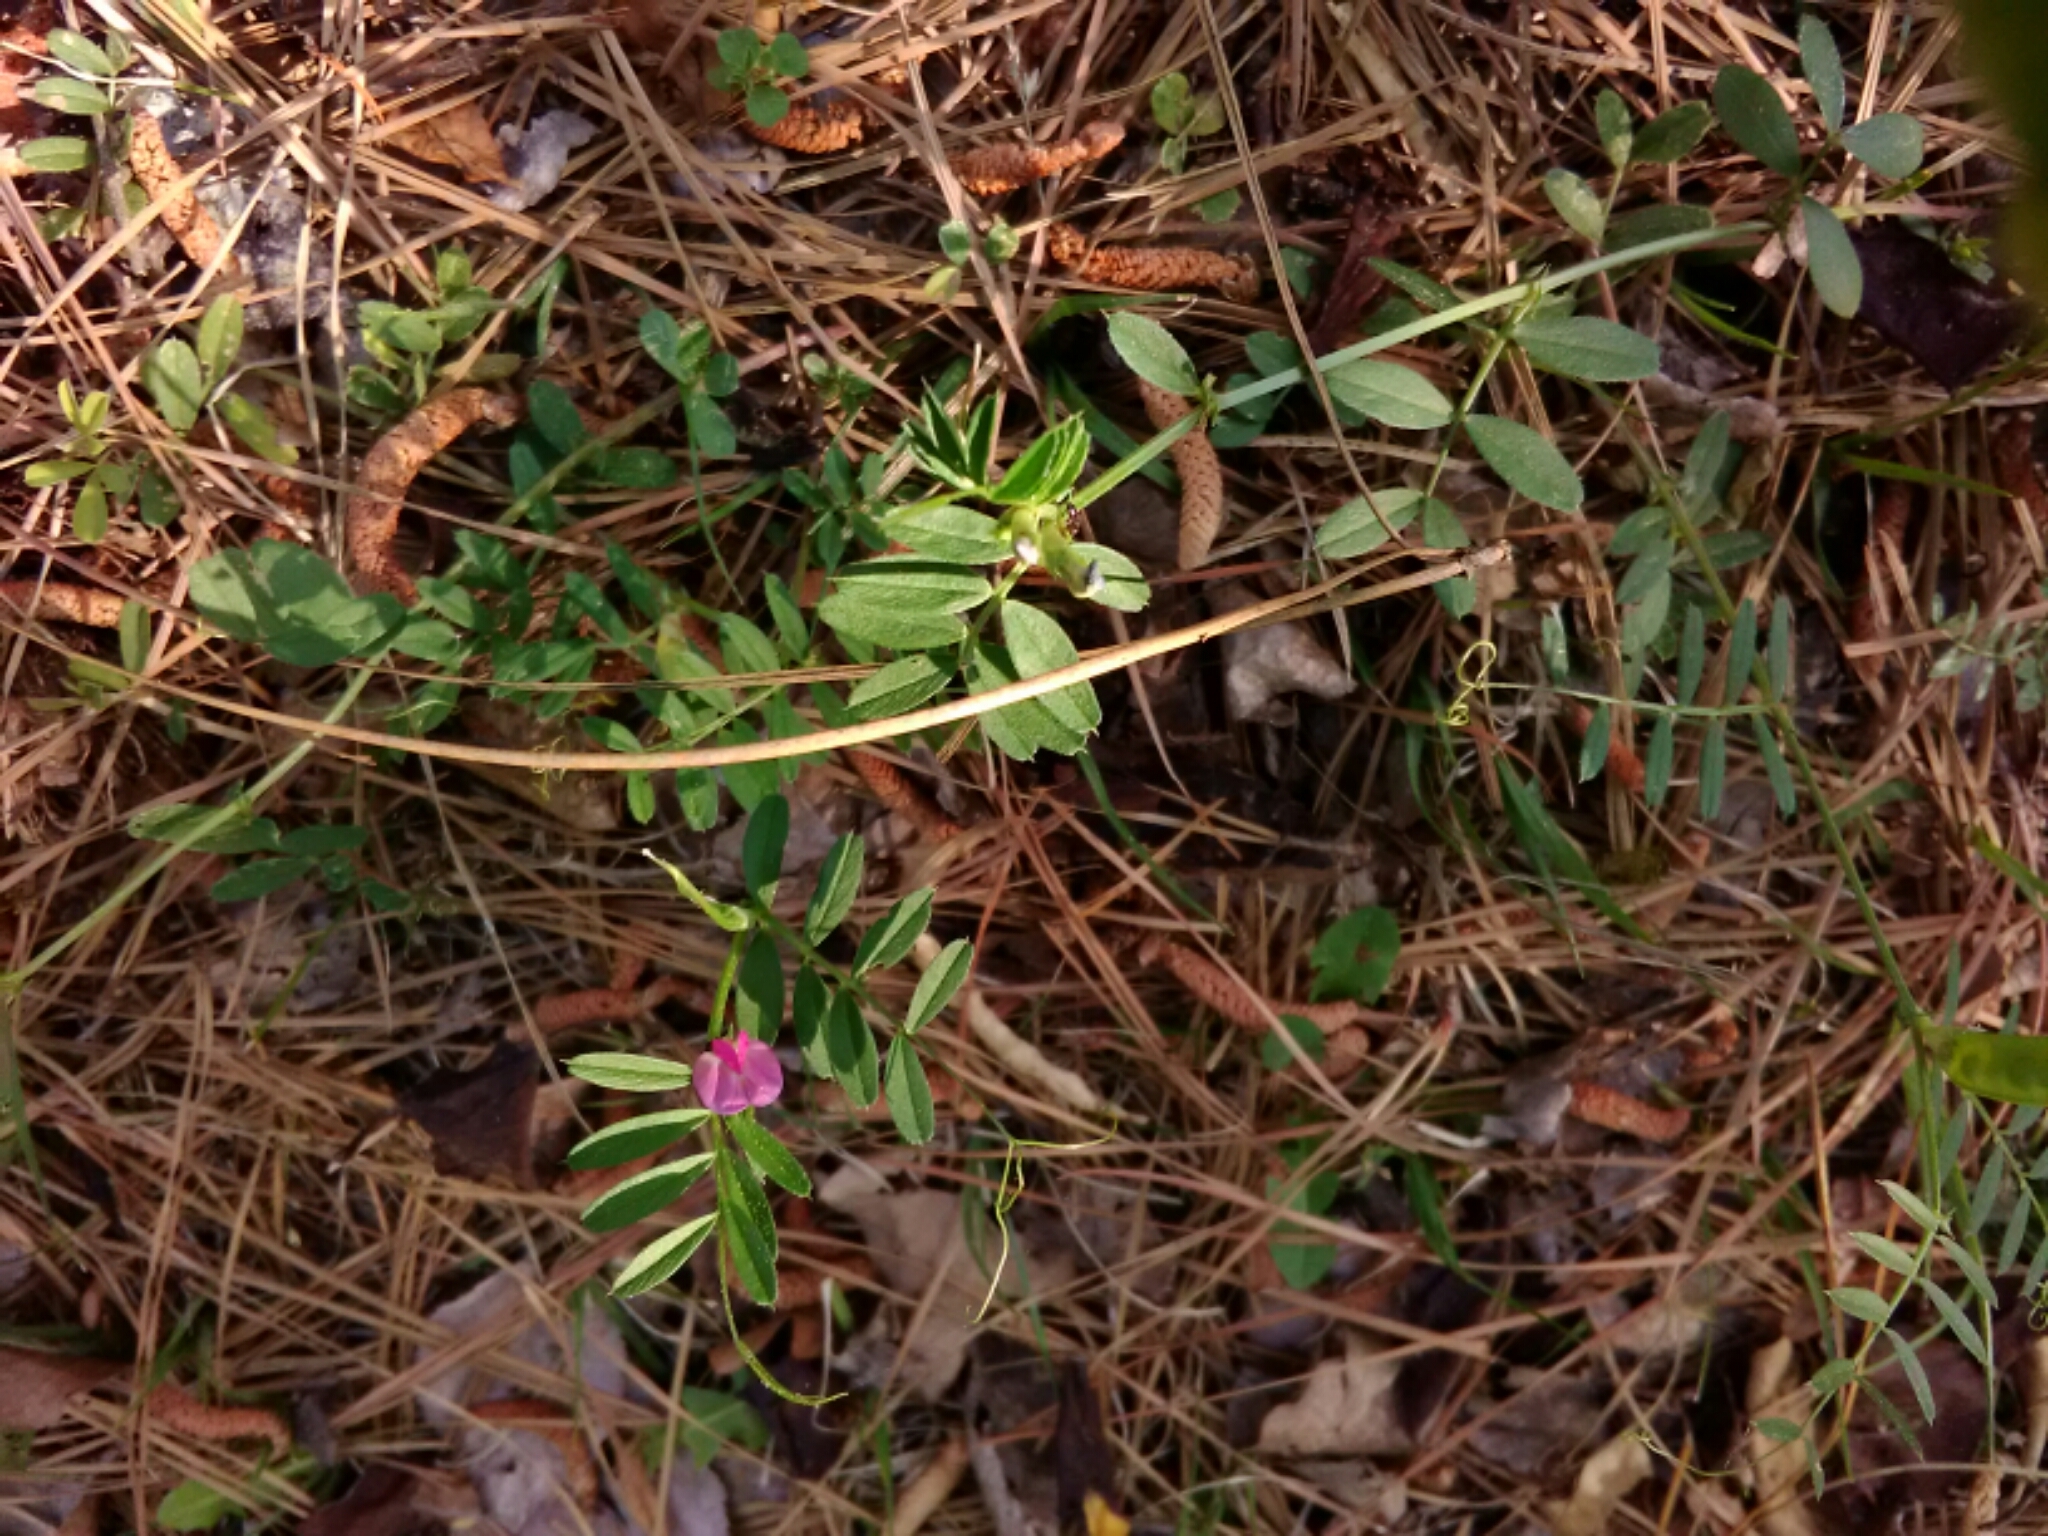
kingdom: Plantae
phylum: Tracheophyta
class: Magnoliopsida
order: Fabales
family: Fabaceae
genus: Vicia
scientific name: Vicia sativa
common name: Garden vetch
